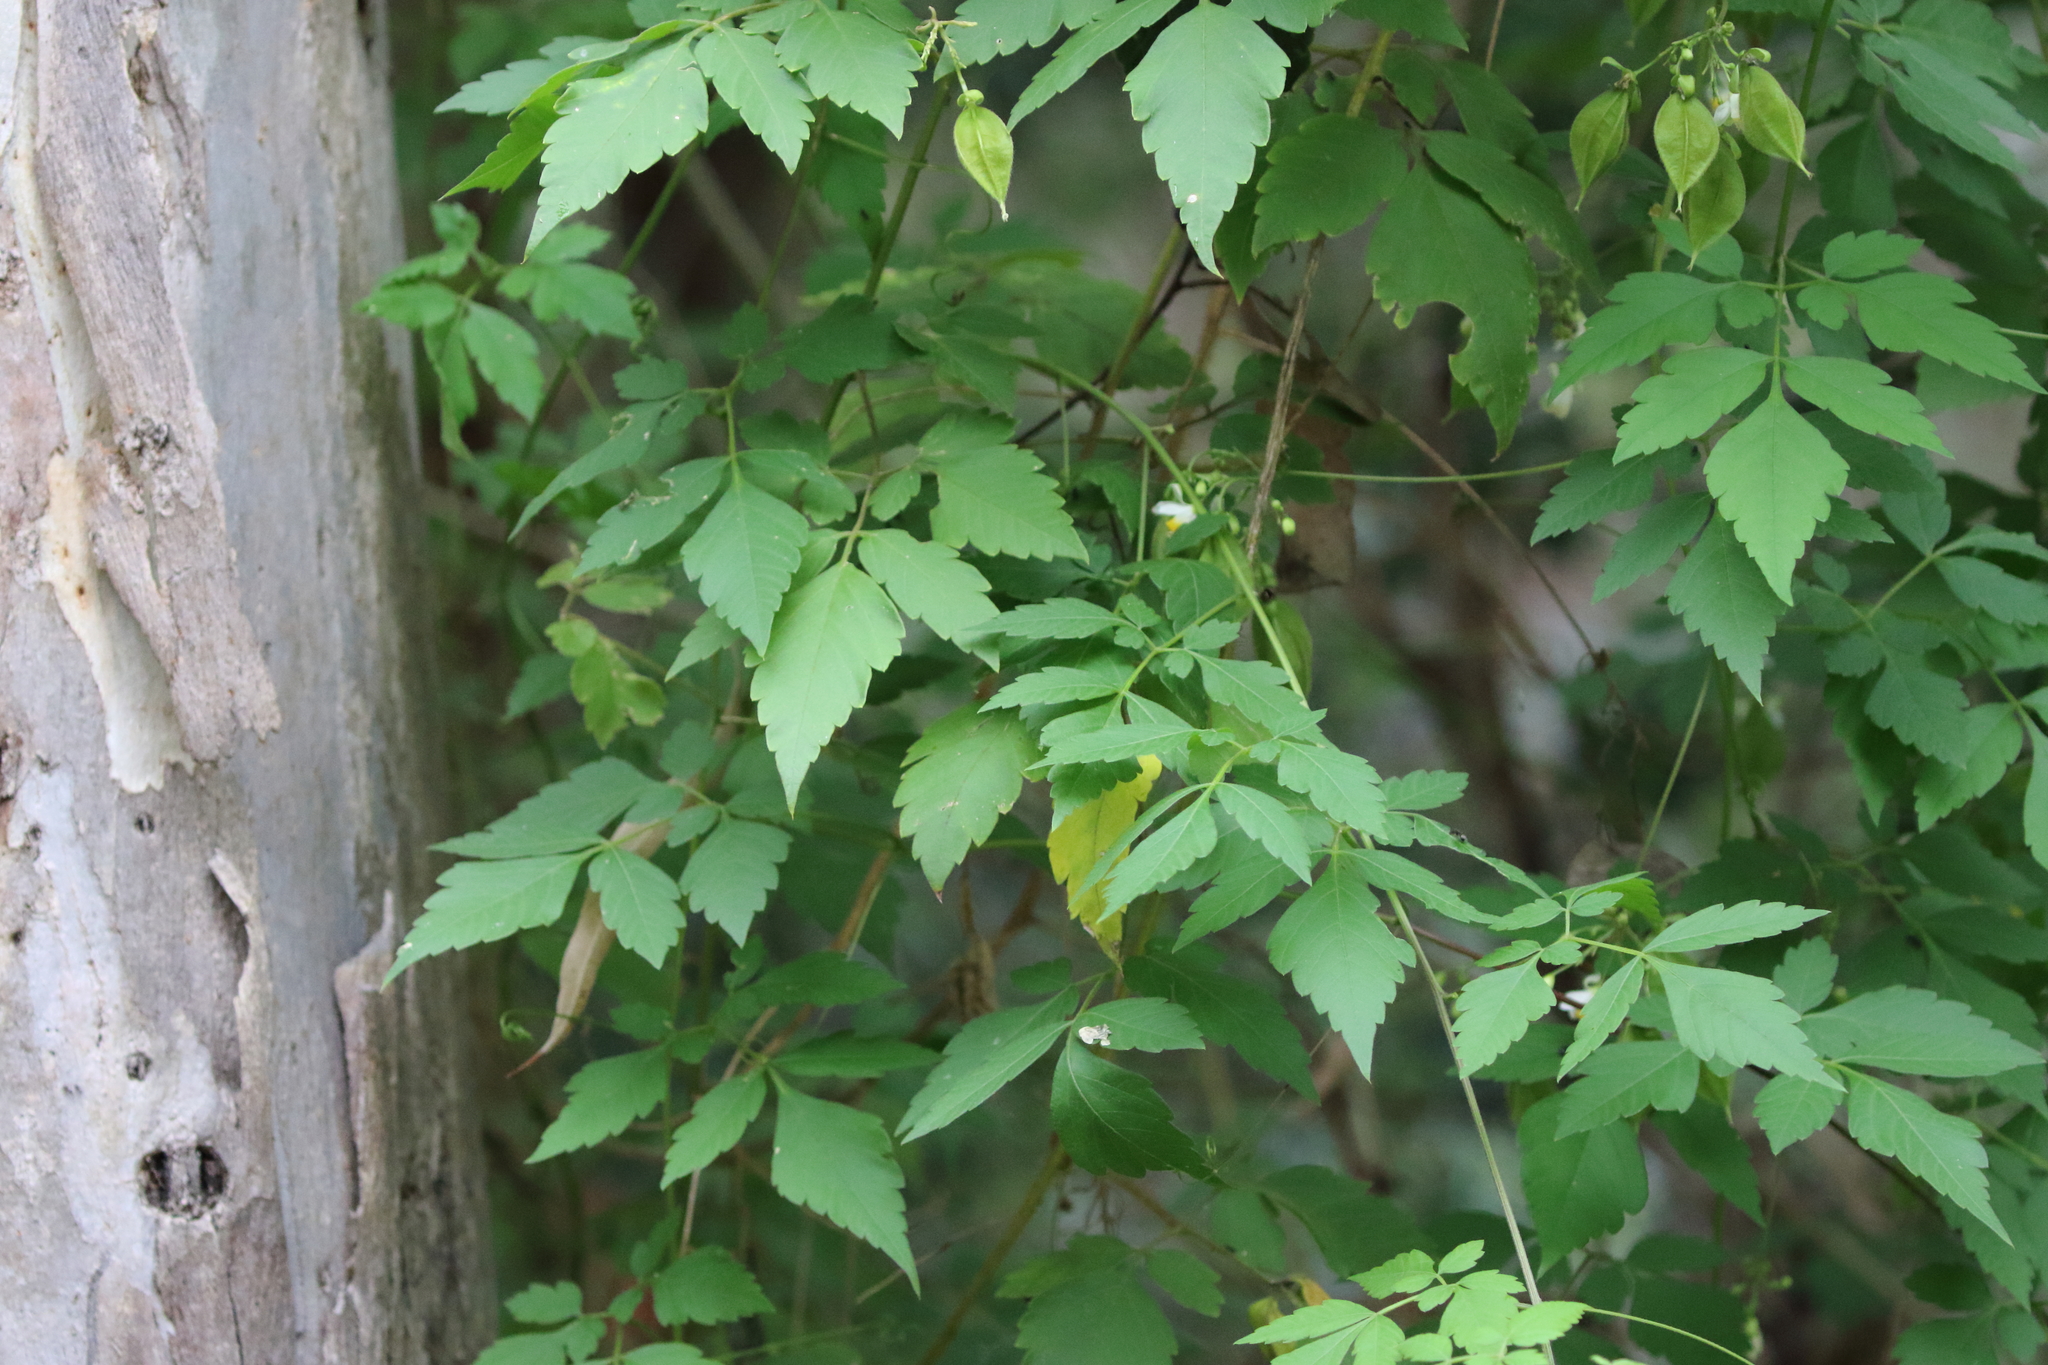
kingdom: Plantae
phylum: Tracheophyta
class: Magnoliopsida
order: Sapindales
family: Sapindaceae
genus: Cardiospermum
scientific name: Cardiospermum halicacabum
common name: Balloon vine
